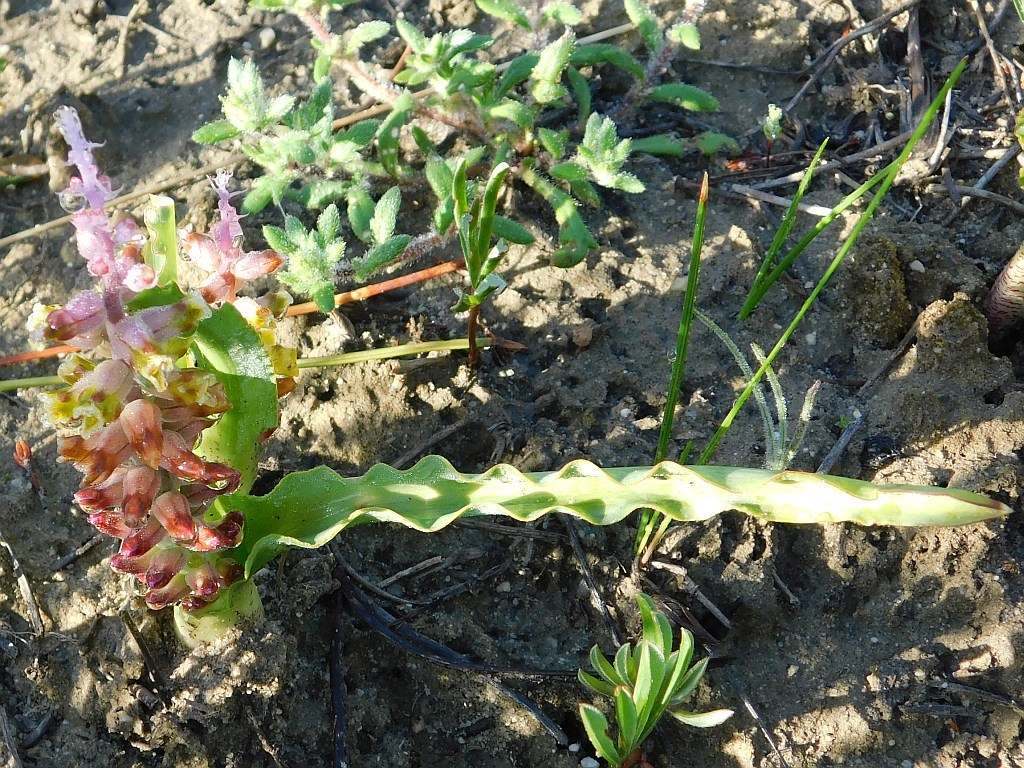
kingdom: Plantae
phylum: Tracheophyta
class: Liliopsida
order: Asparagales
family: Asparagaceae
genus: Lachenalia
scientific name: Lachenalia mutabilis
